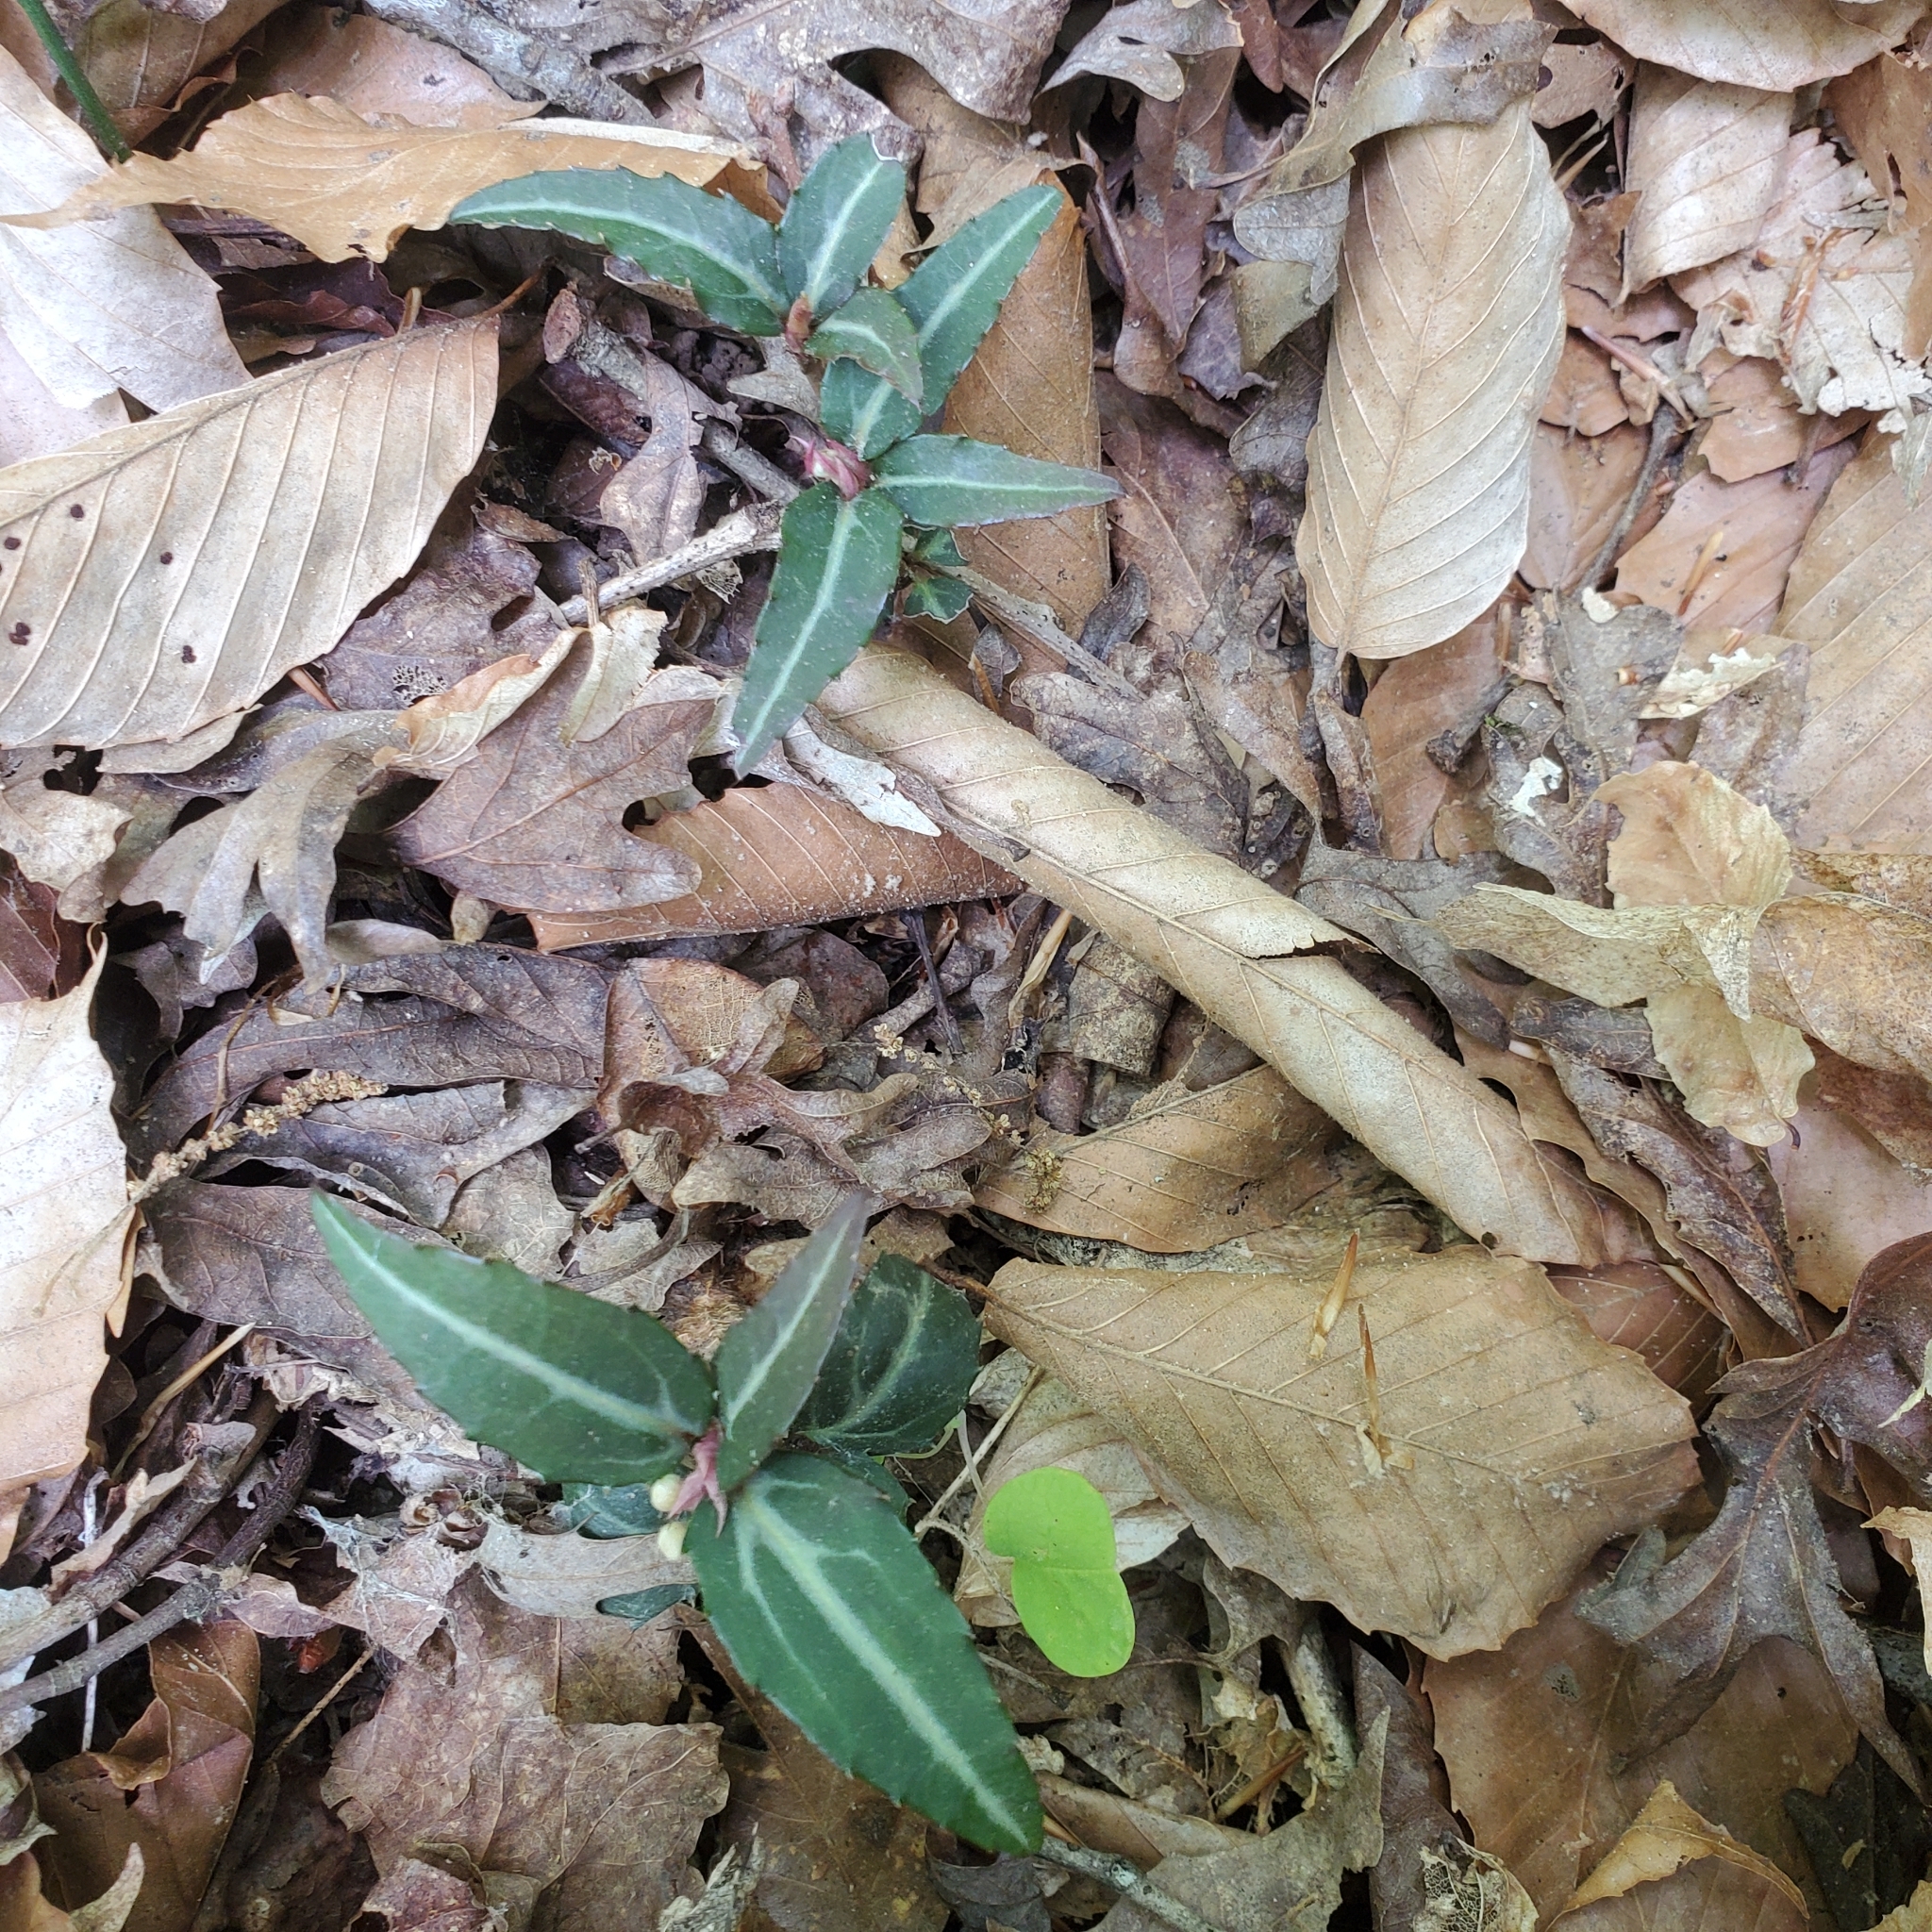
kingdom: Plantae
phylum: Tracheophyta
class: Magnoliopsida
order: Ericales
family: Ericaceae
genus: Chimaphila
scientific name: Chimaphila maculata
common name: Spotted pipsissewa
